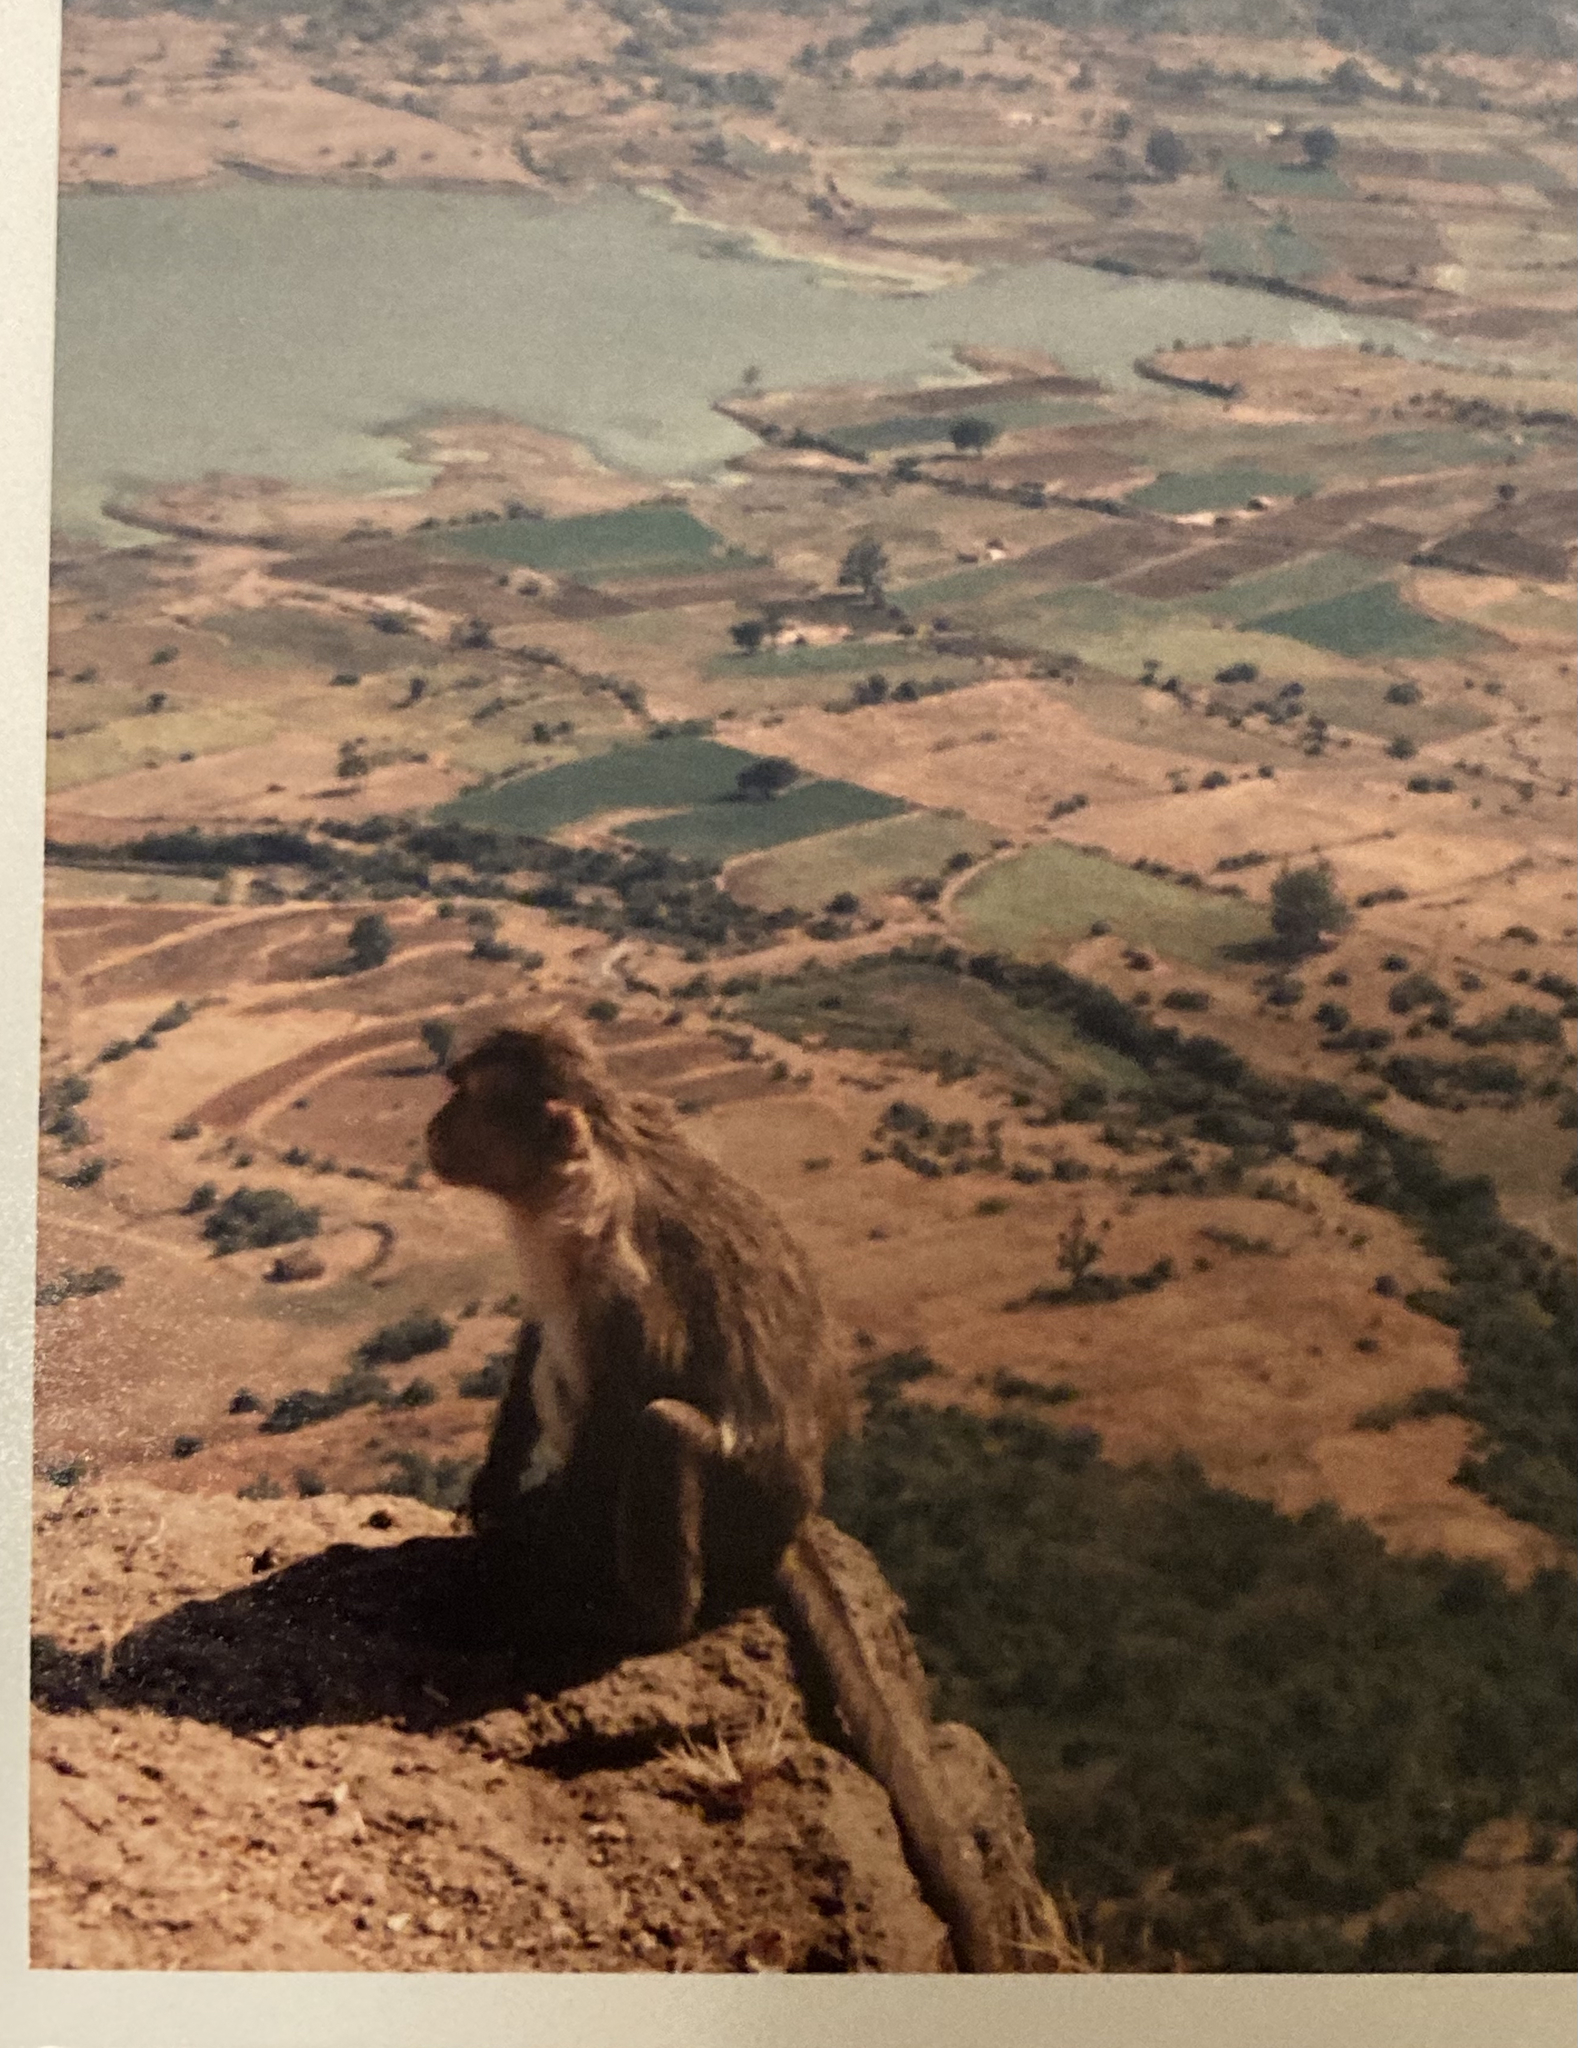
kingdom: Animalia
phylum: Chordata
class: Mammalia
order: Primates
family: Cercopithecidae
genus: Macaca
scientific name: Macaca radiata
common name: Bonnet macaque
